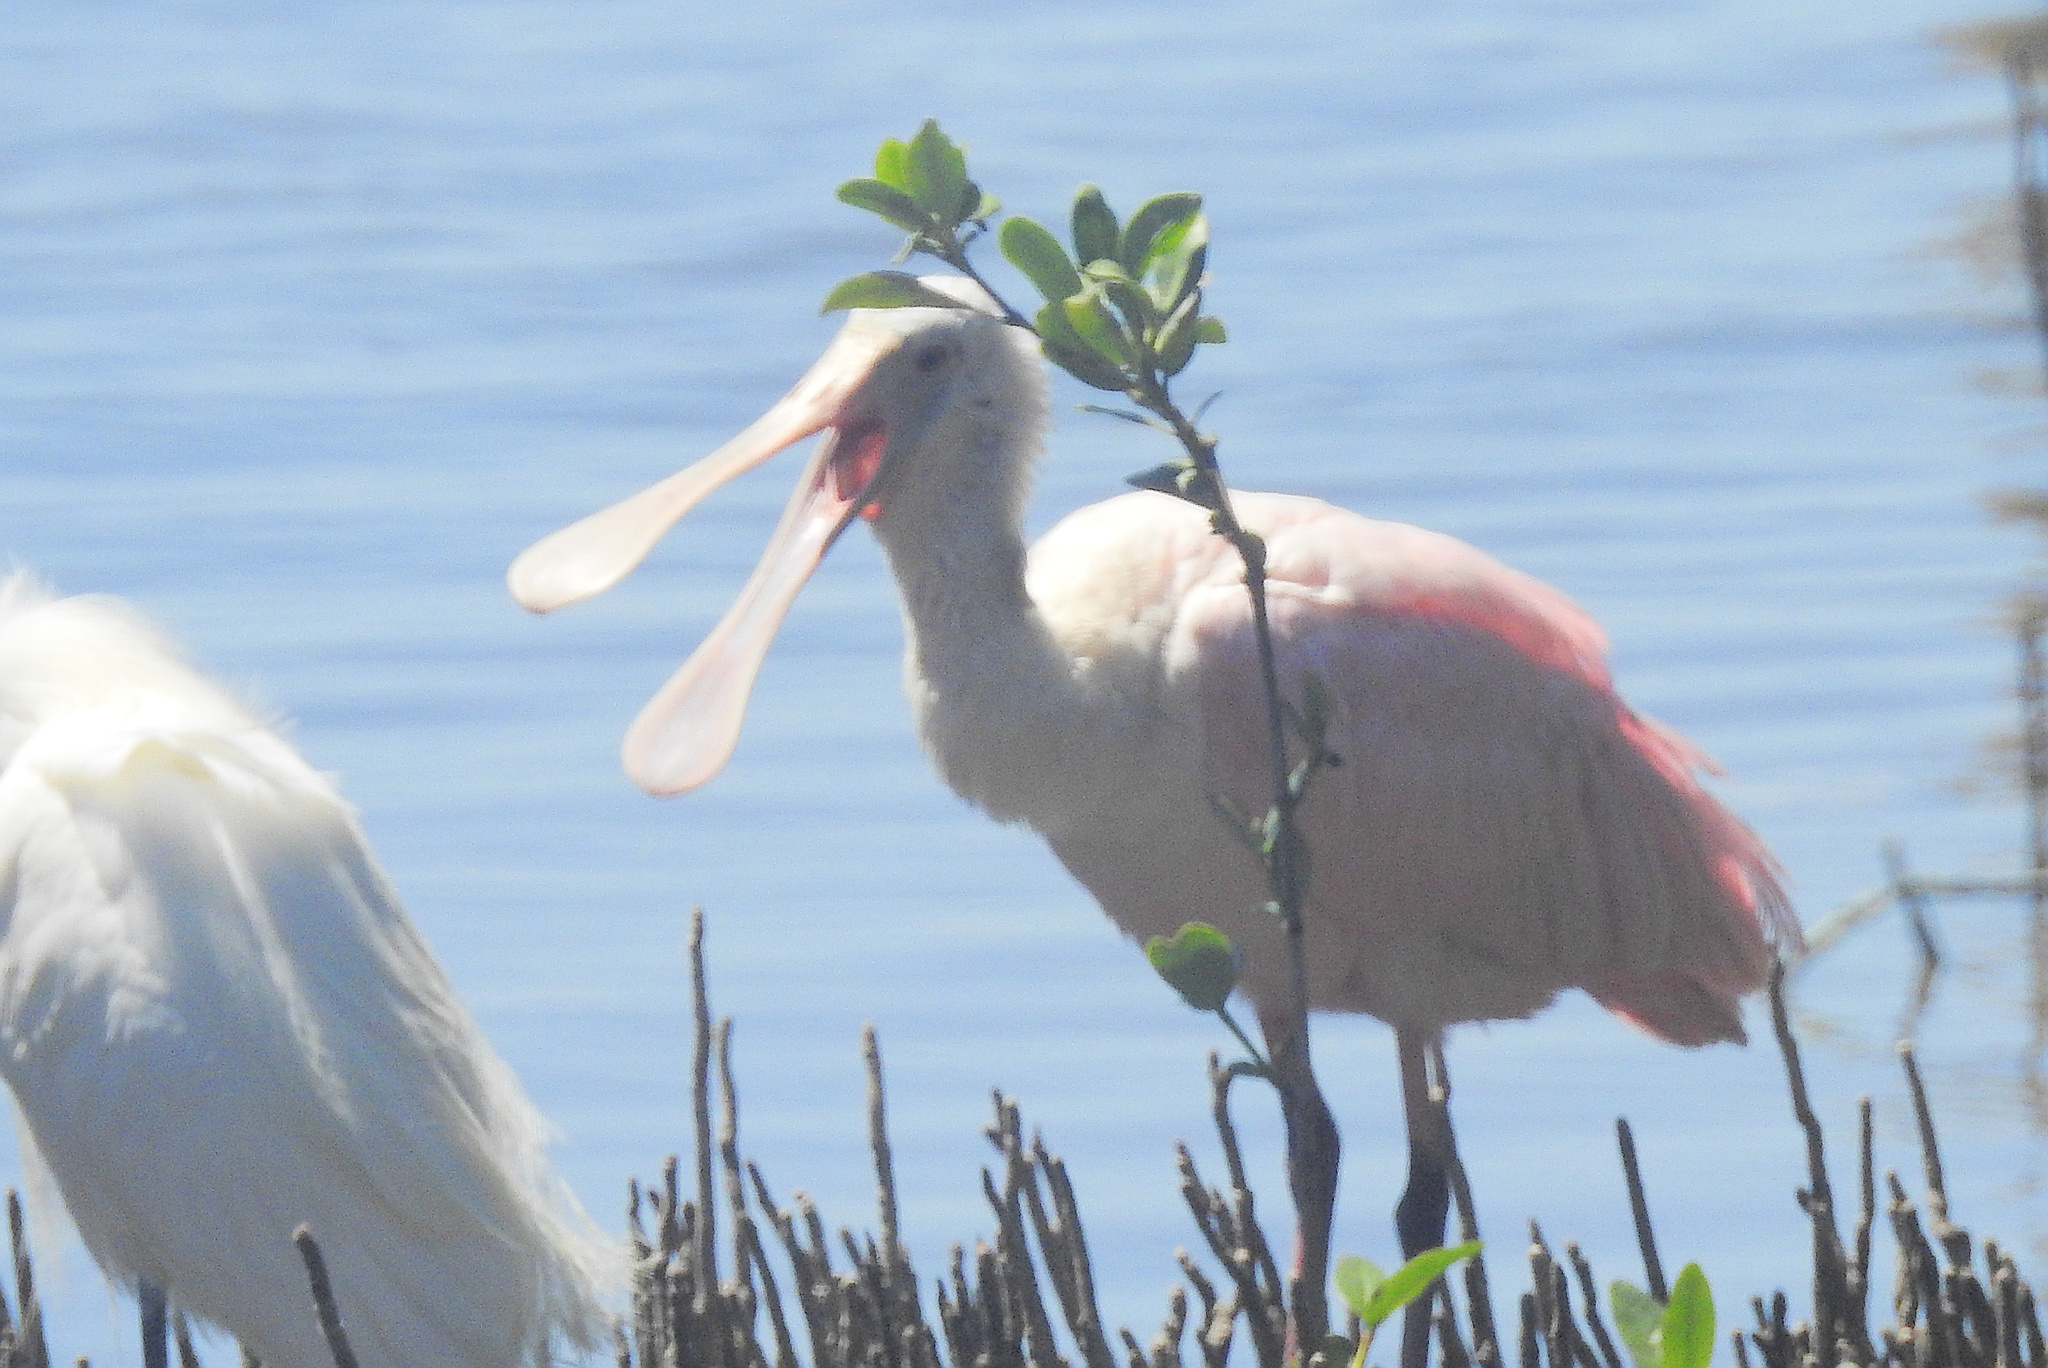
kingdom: Animalia
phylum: Chordata
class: Aves
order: Pelecaniformes
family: Threskiornithidae
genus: Platalea
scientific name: Platalea ajaja
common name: Roseate spoonbill
